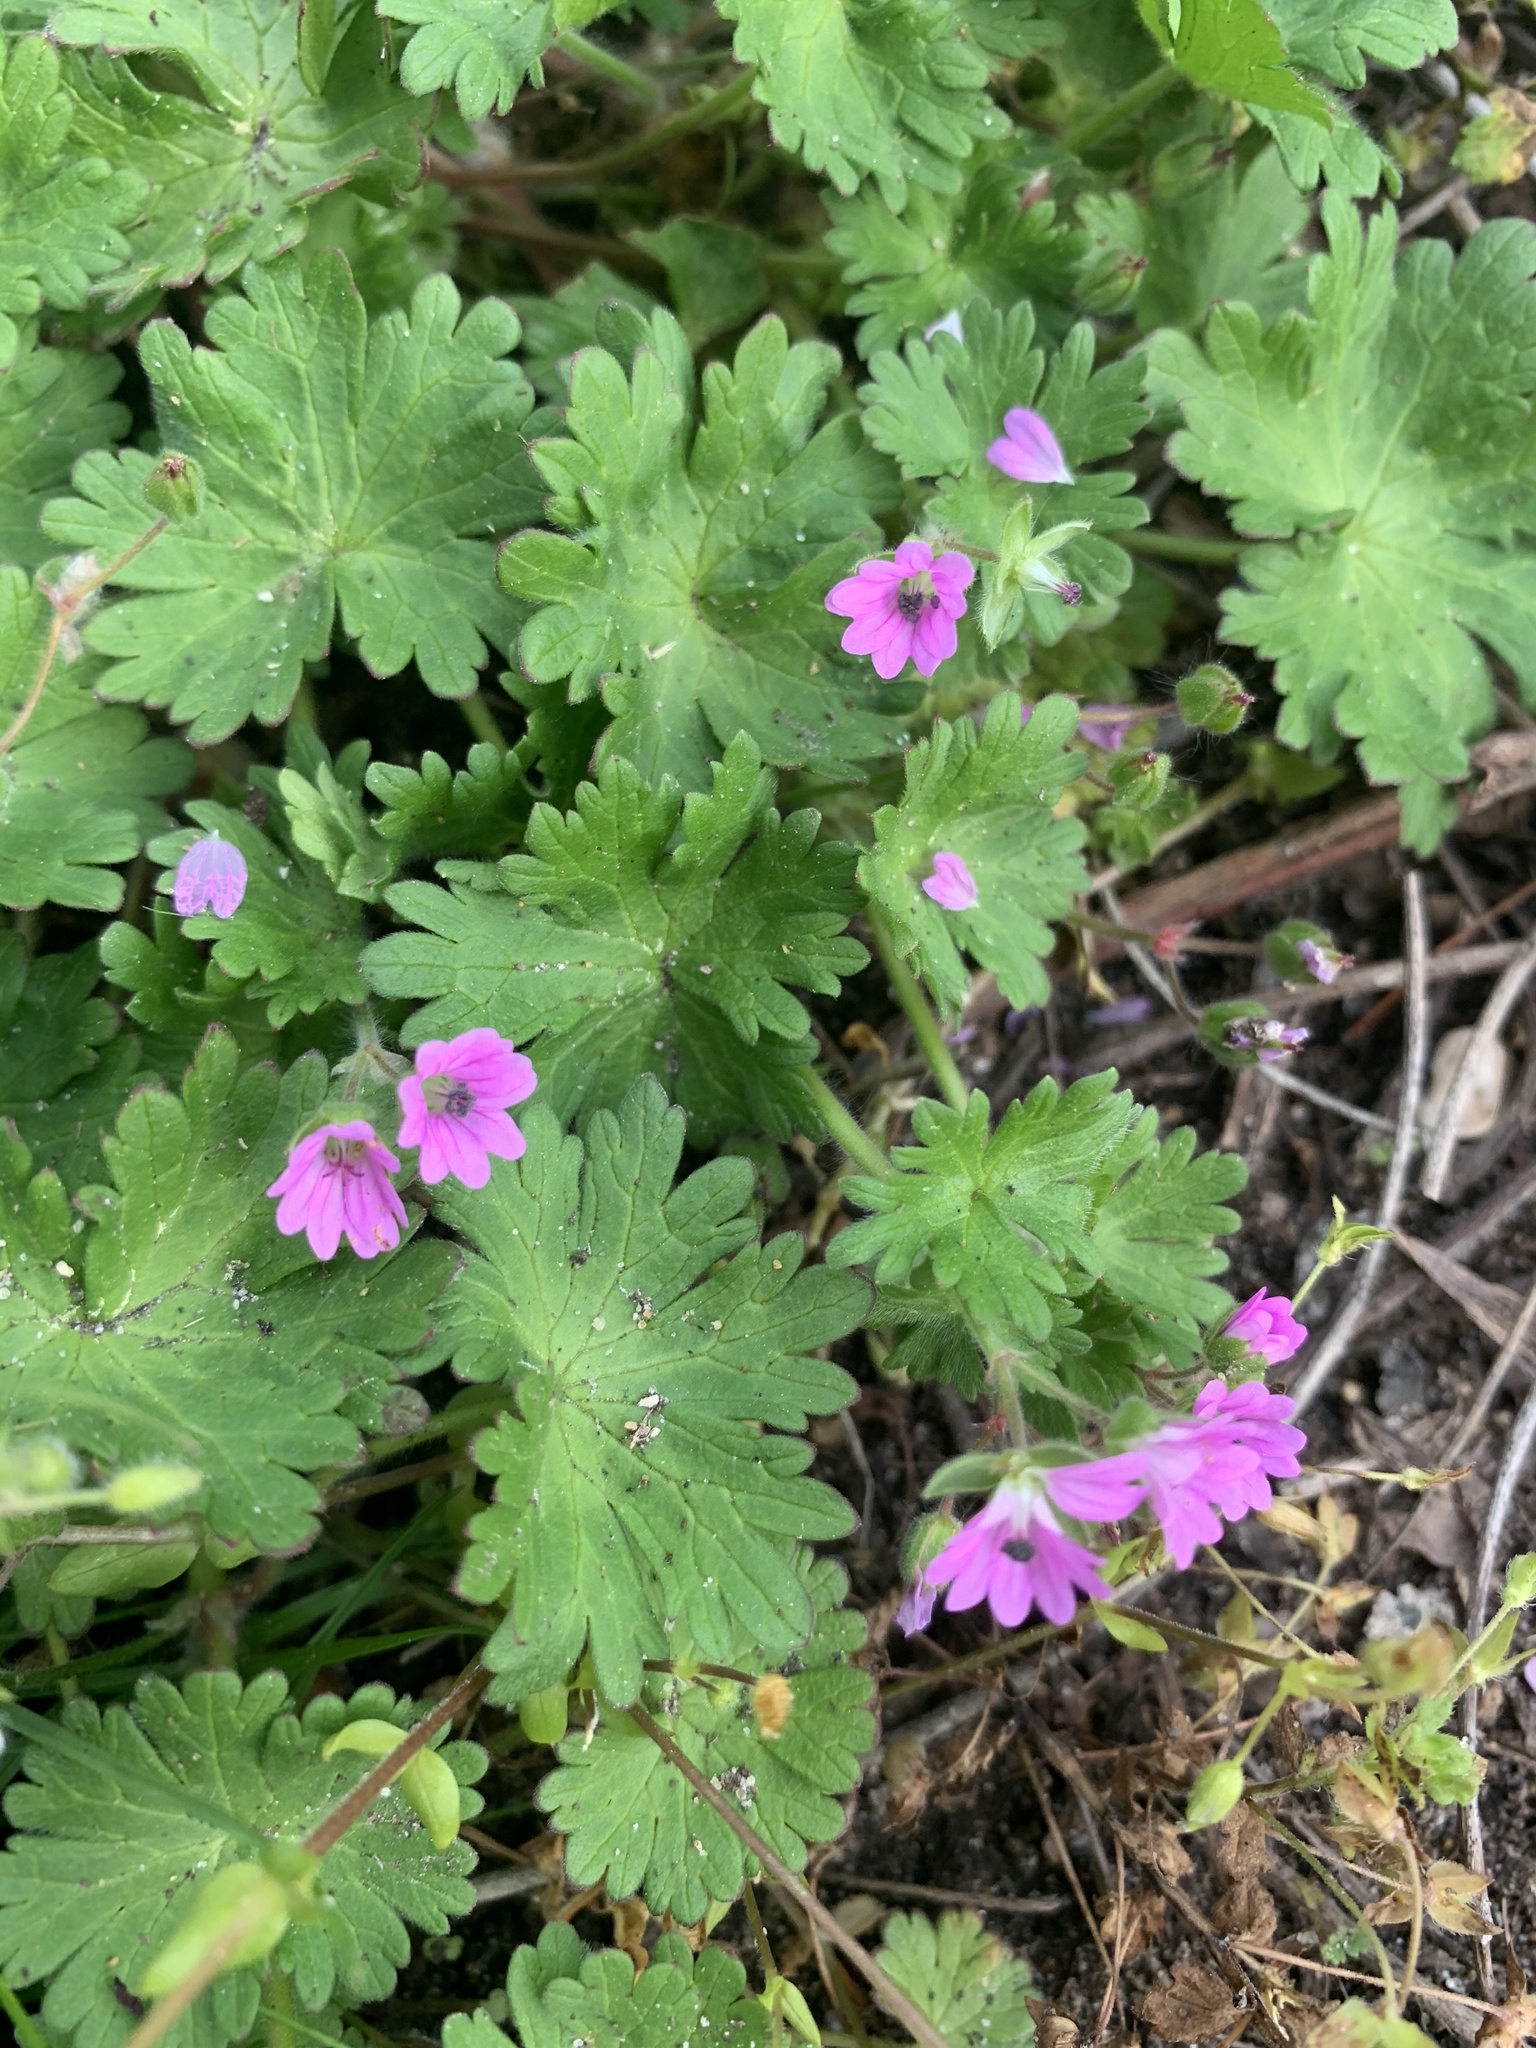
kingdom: Plantae
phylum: Tracheophyta
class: Magnoliopsida
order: Geraniales
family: Geraniaceae
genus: Geranium
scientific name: Geranium molle
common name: Dove's-foot crane's-bill
